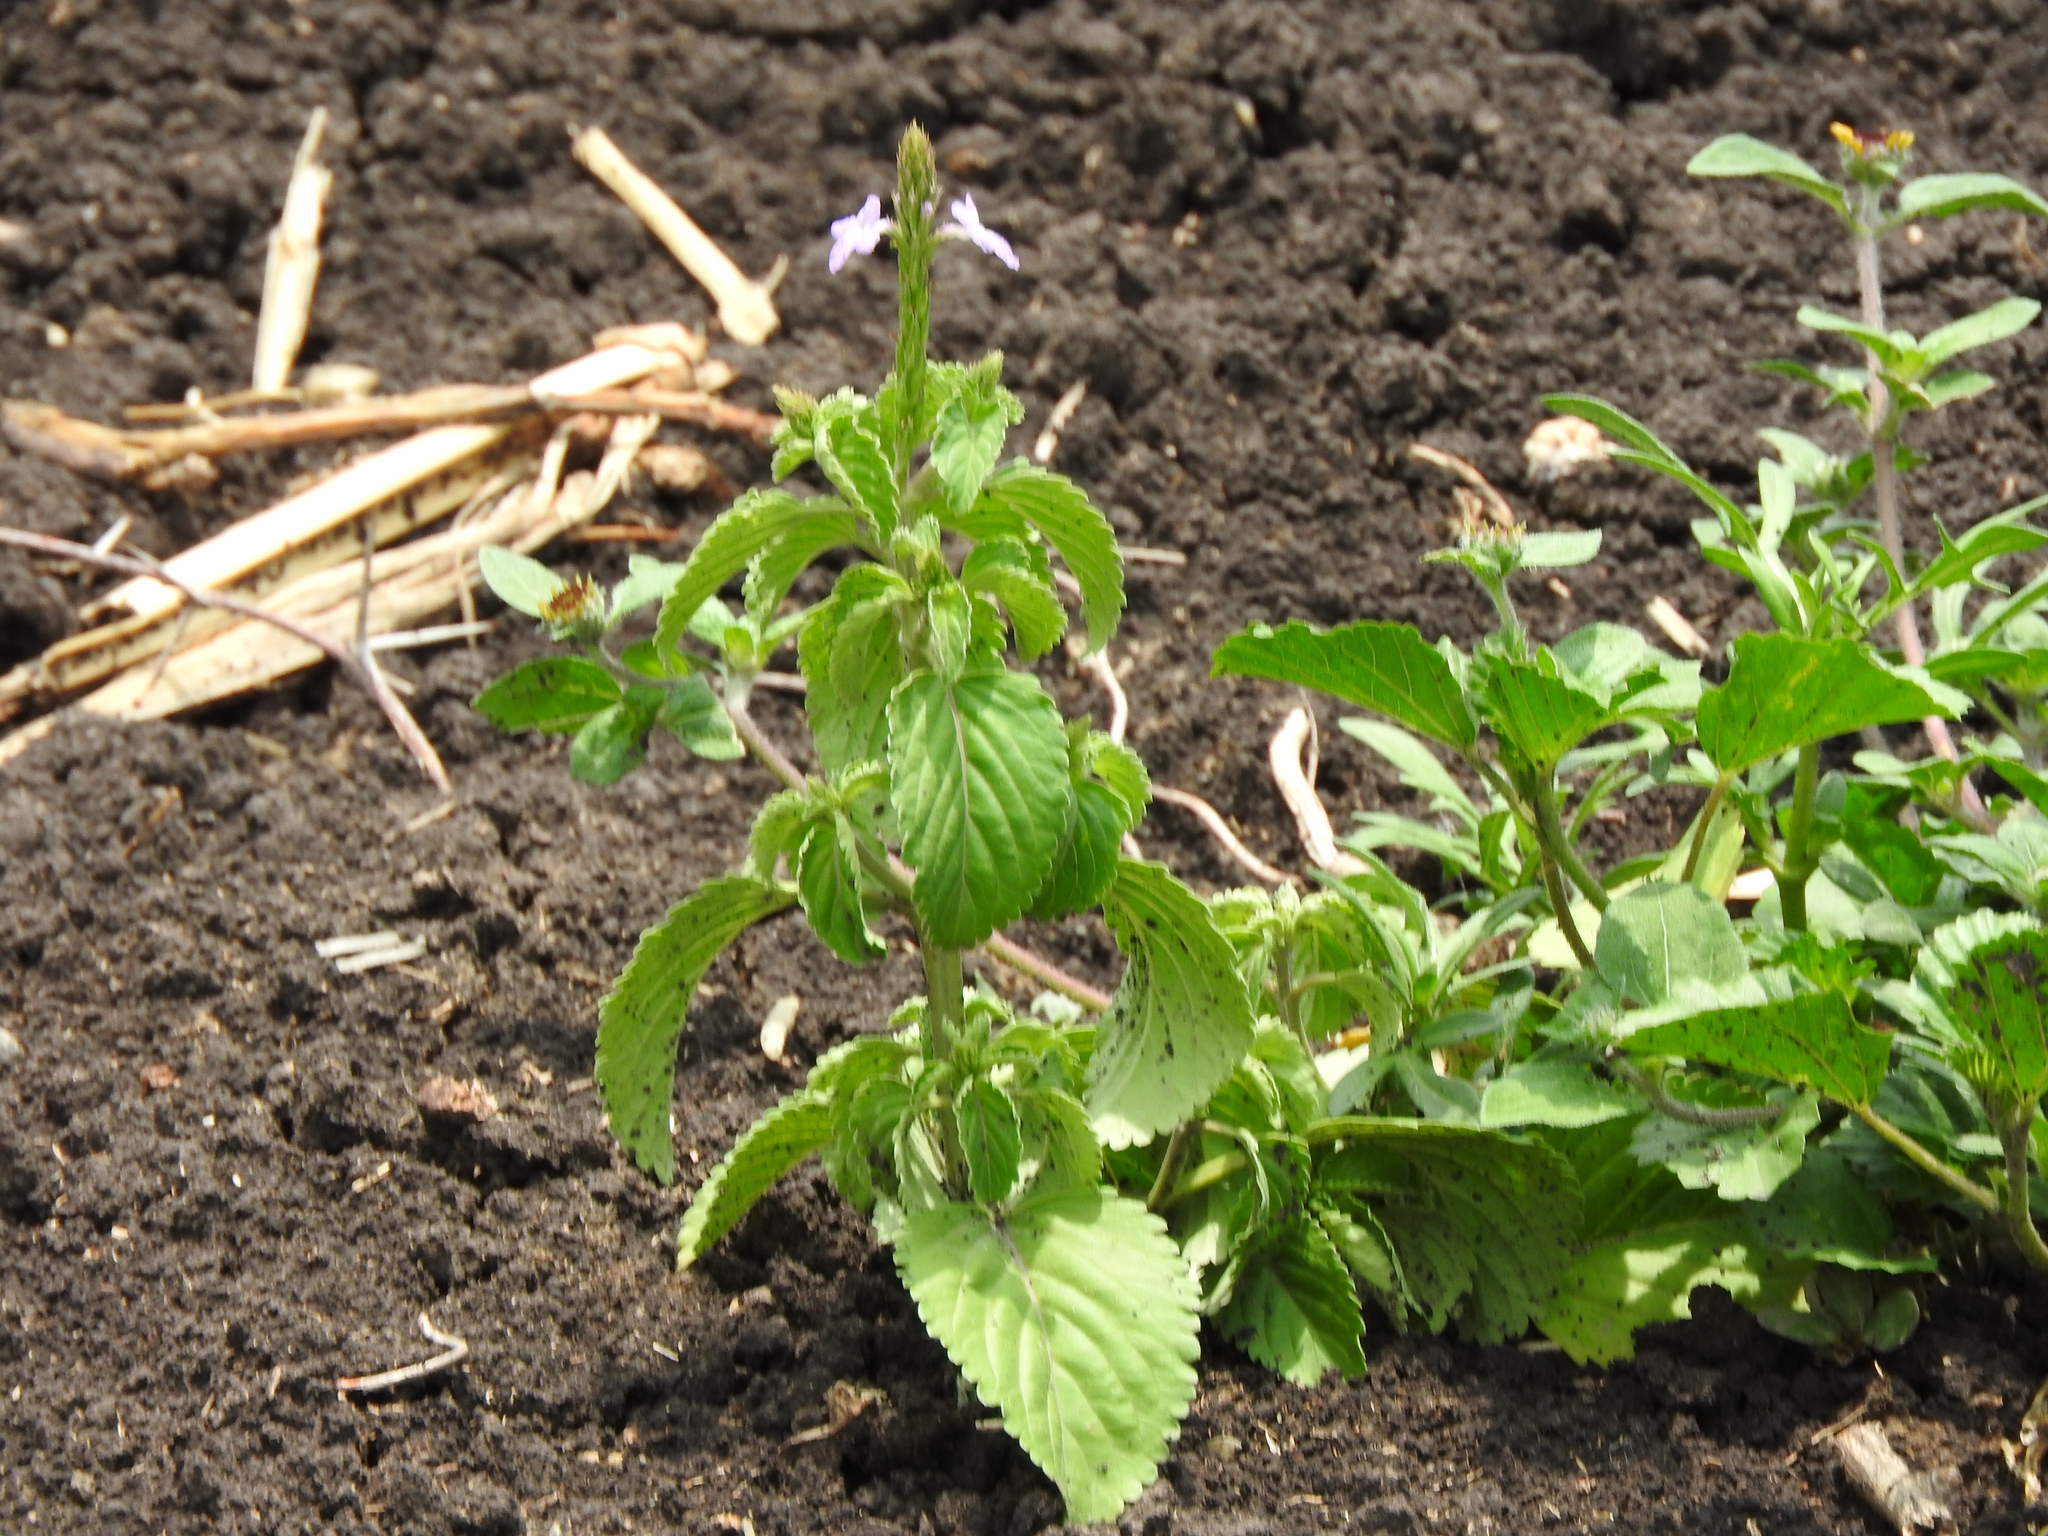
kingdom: Plantae
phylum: Tracheophyta
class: Magnoliopsida
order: Lamiales
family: Verbenaceae
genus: Bouchea
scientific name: Bouchea prismatica
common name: Vervine
